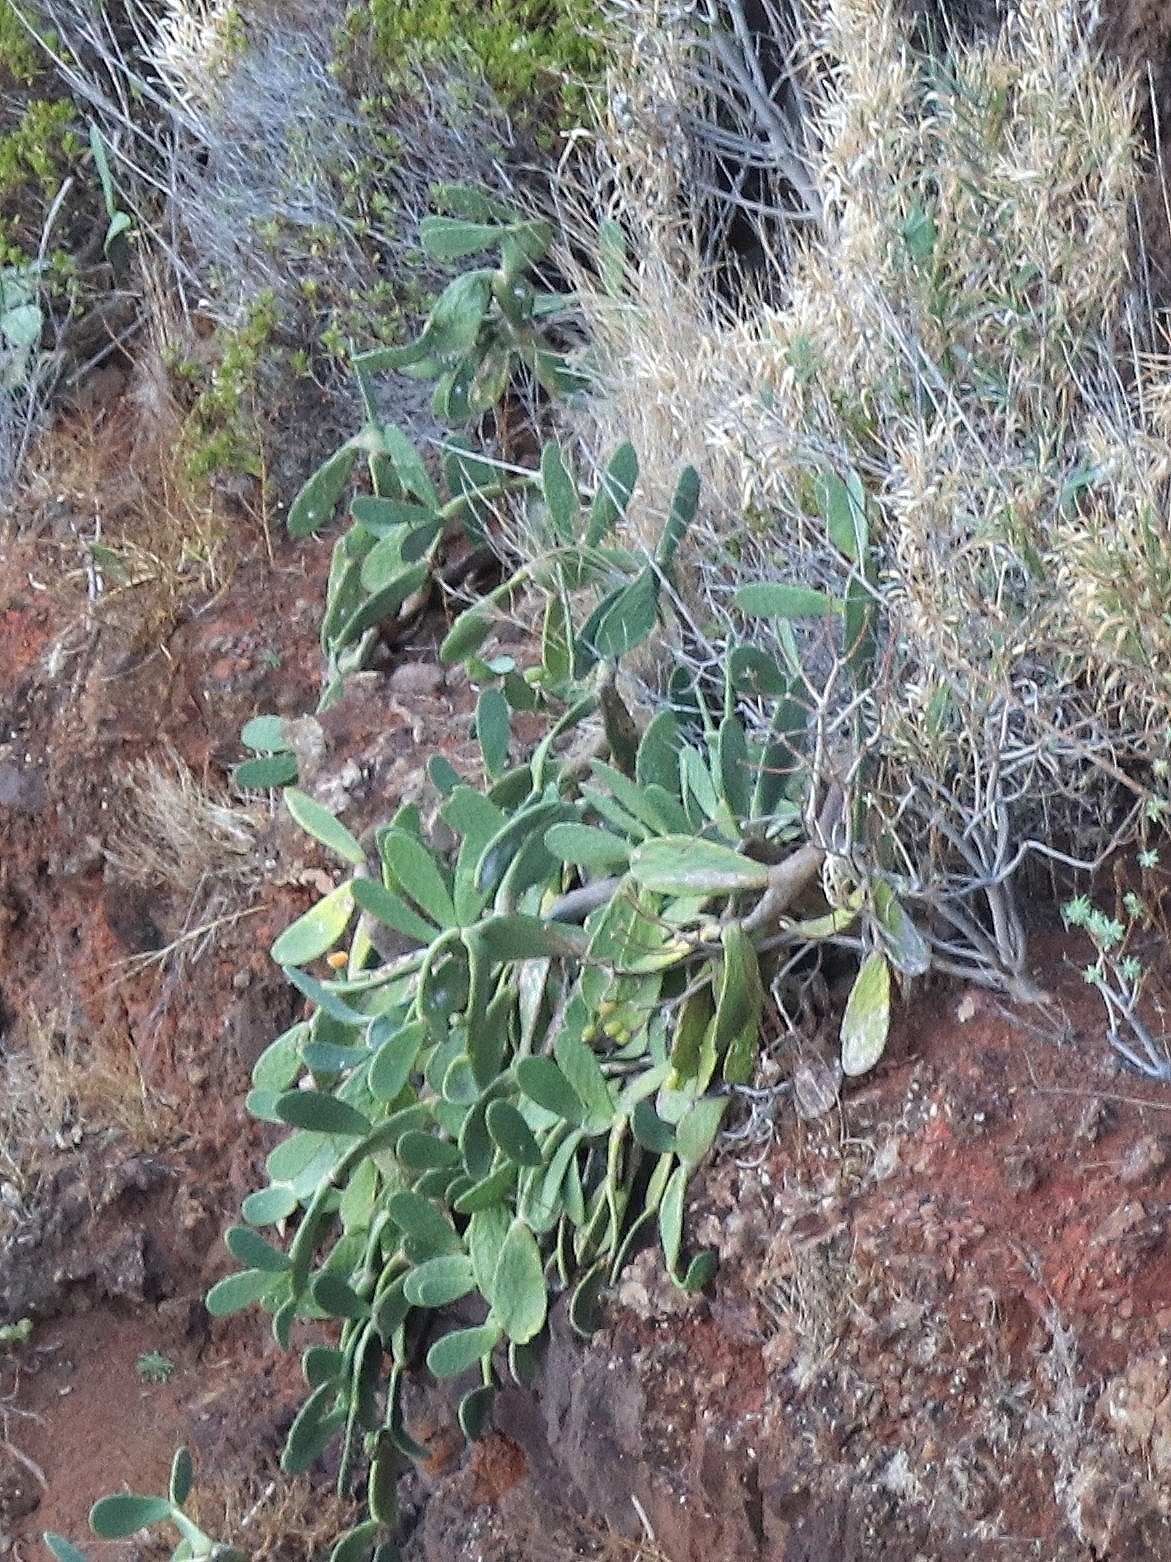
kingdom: Plantae
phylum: Tracheophyta
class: Magnoliopsida
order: Caryophyllales
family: Cactaceae
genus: Opuntia
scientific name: Opuntia ficus-indica
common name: Barbary fig
